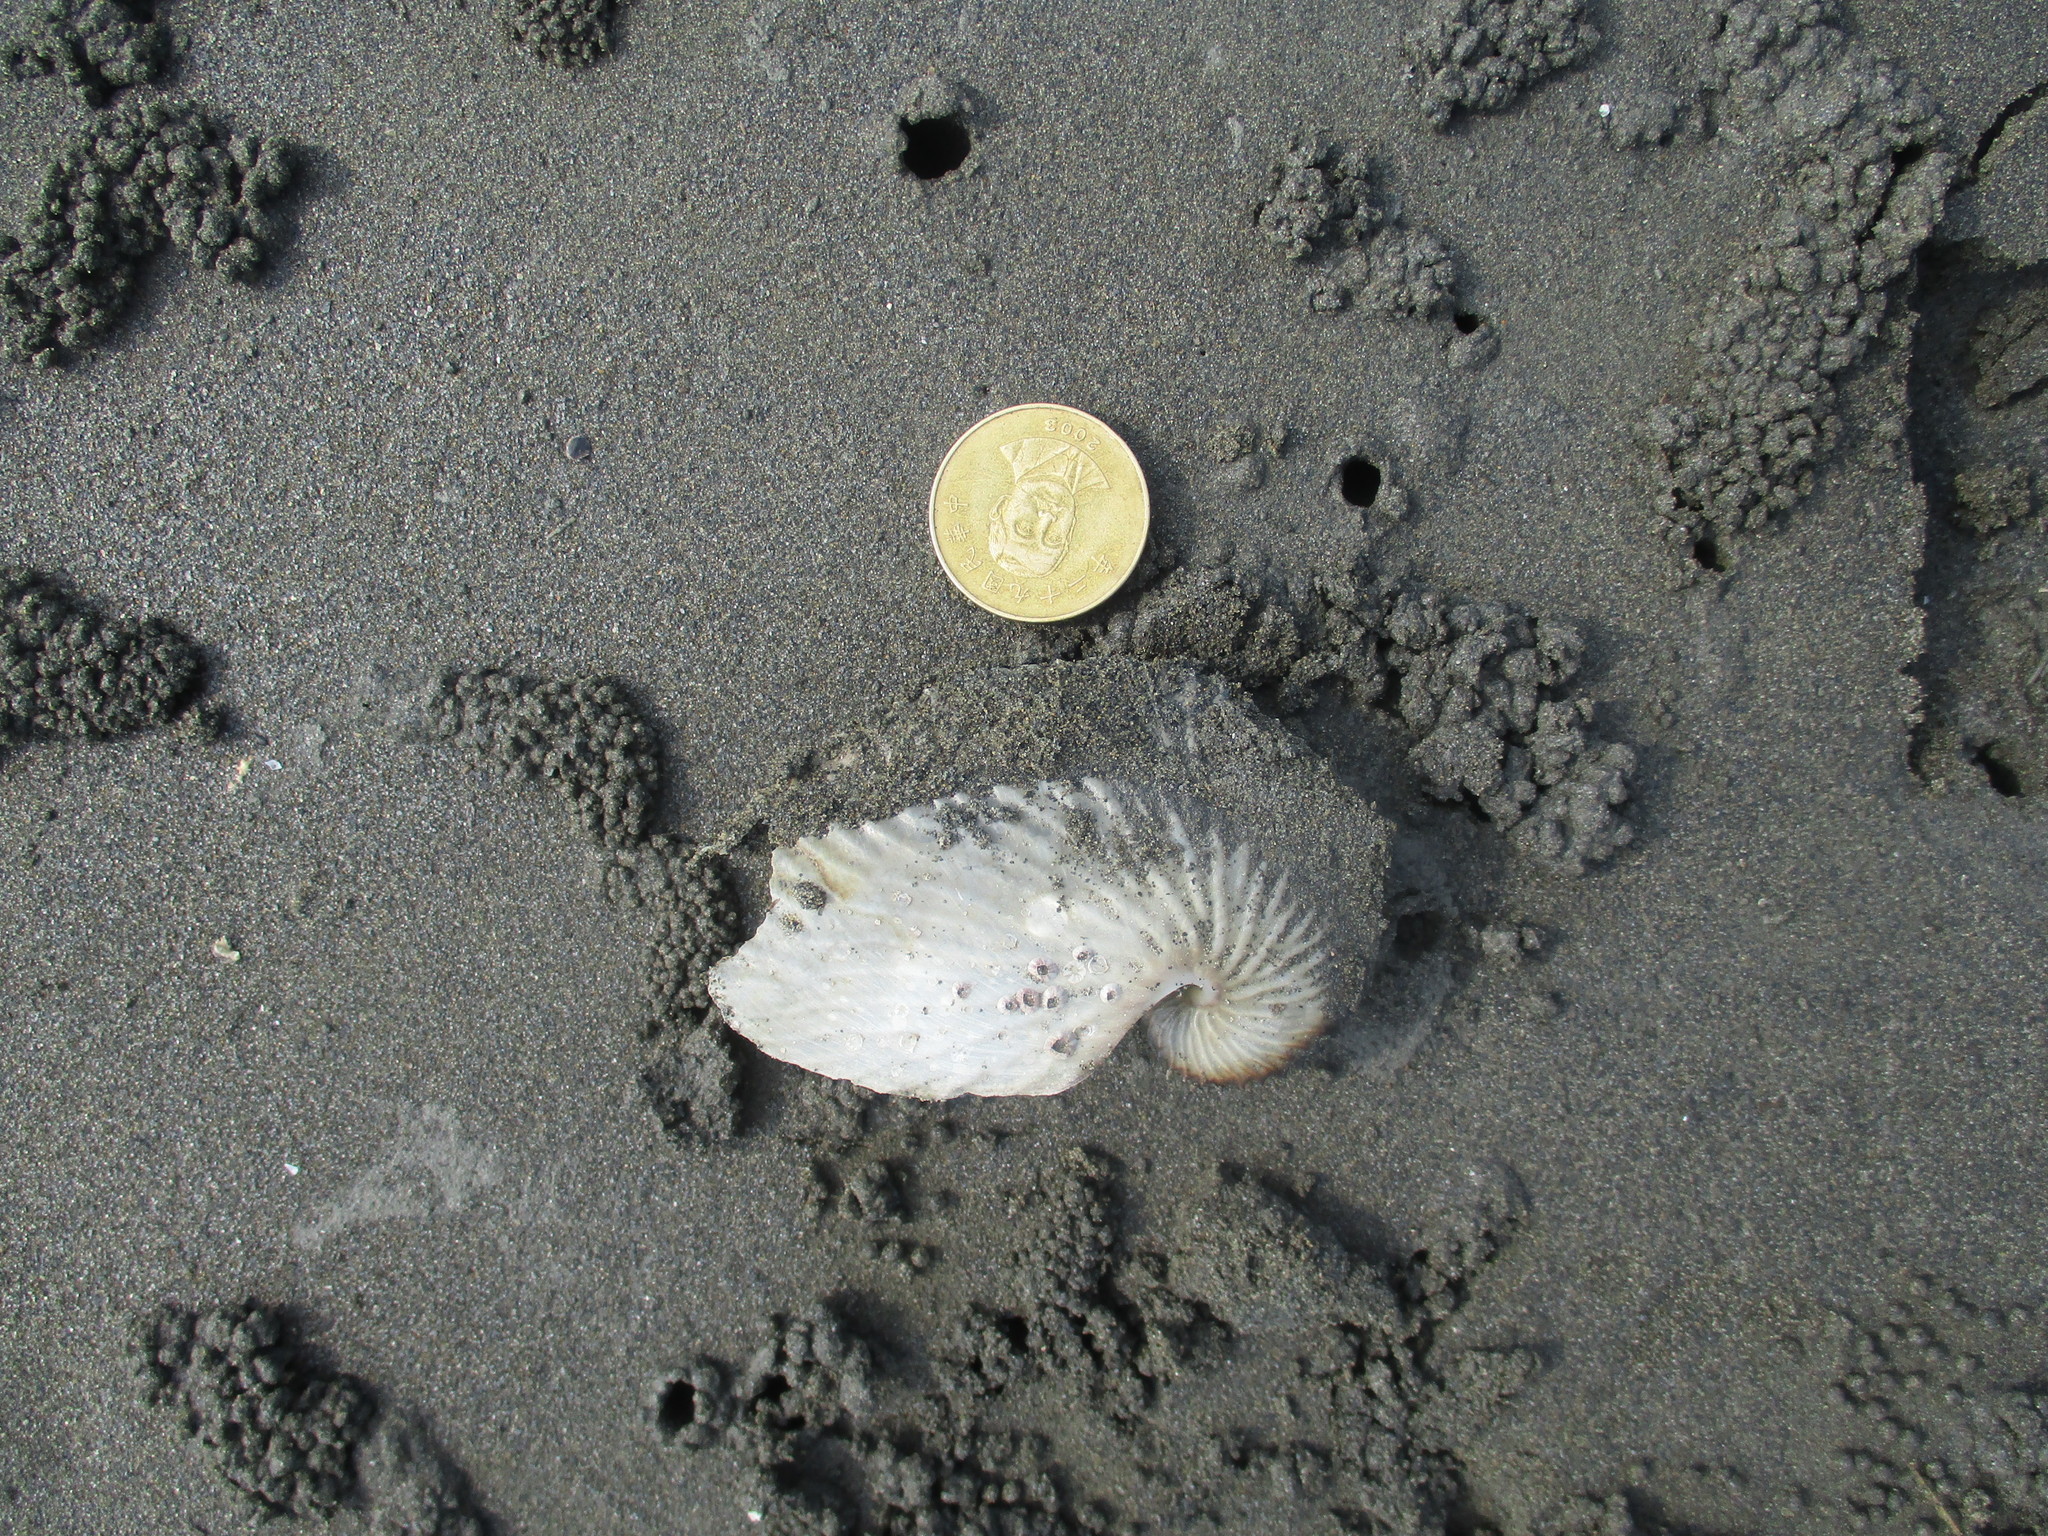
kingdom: Animalia
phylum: Mollusca
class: Cephalopoda
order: Octopoda
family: Argonautidae
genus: Argonauta
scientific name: Argonauta argo
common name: Common paper nautilus
